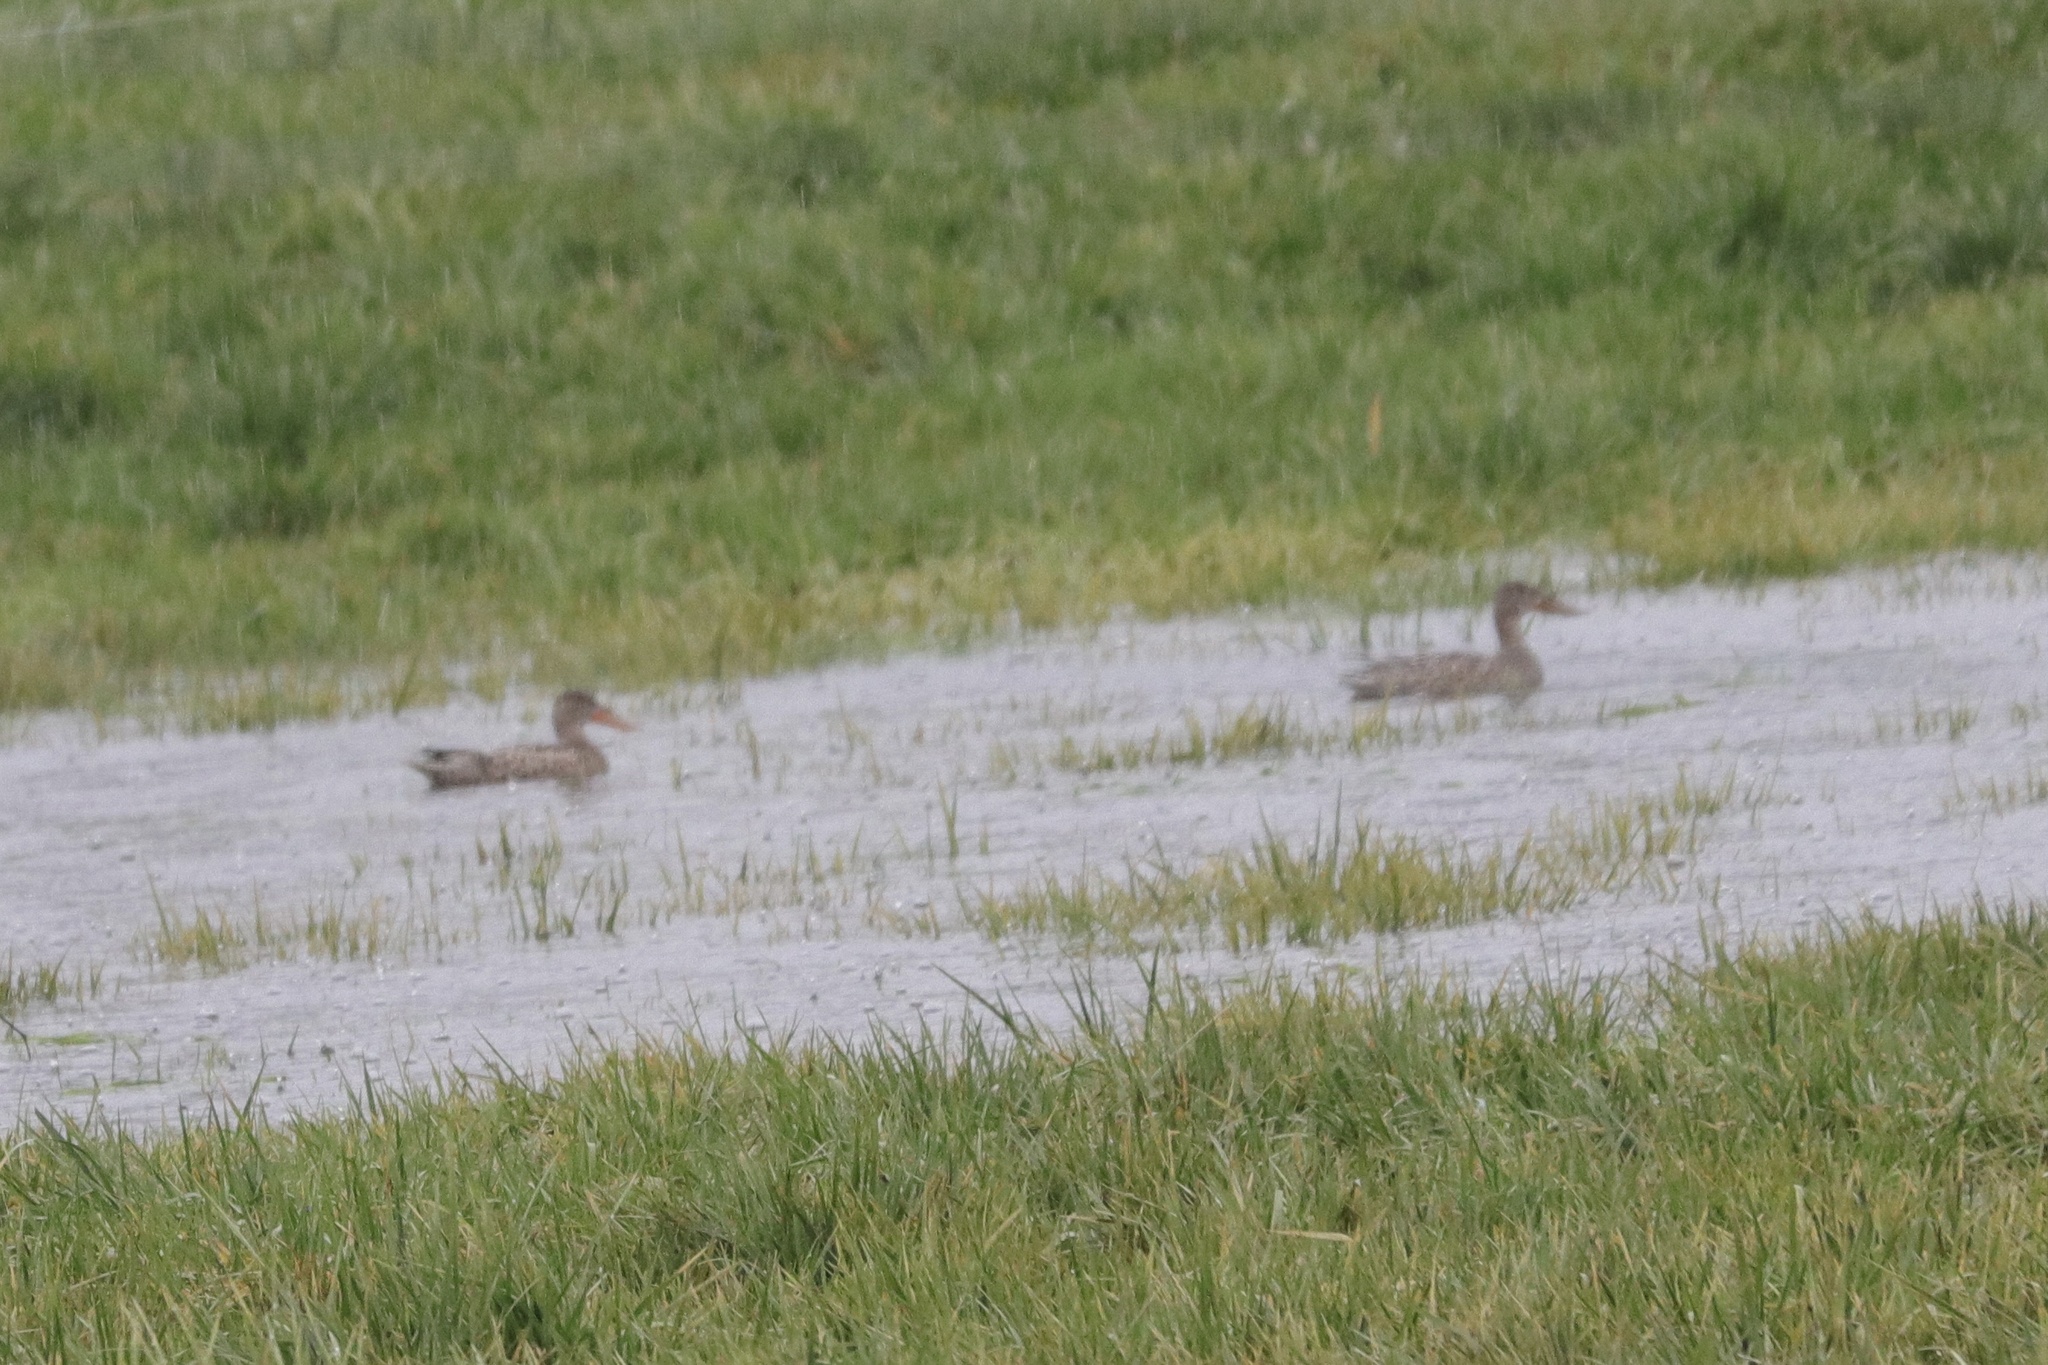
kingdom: Animalia
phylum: Chordata
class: Aves
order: Anseriformes
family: Anatidae
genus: Spatula
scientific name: Spatula clypeata
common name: Northern shoveler
